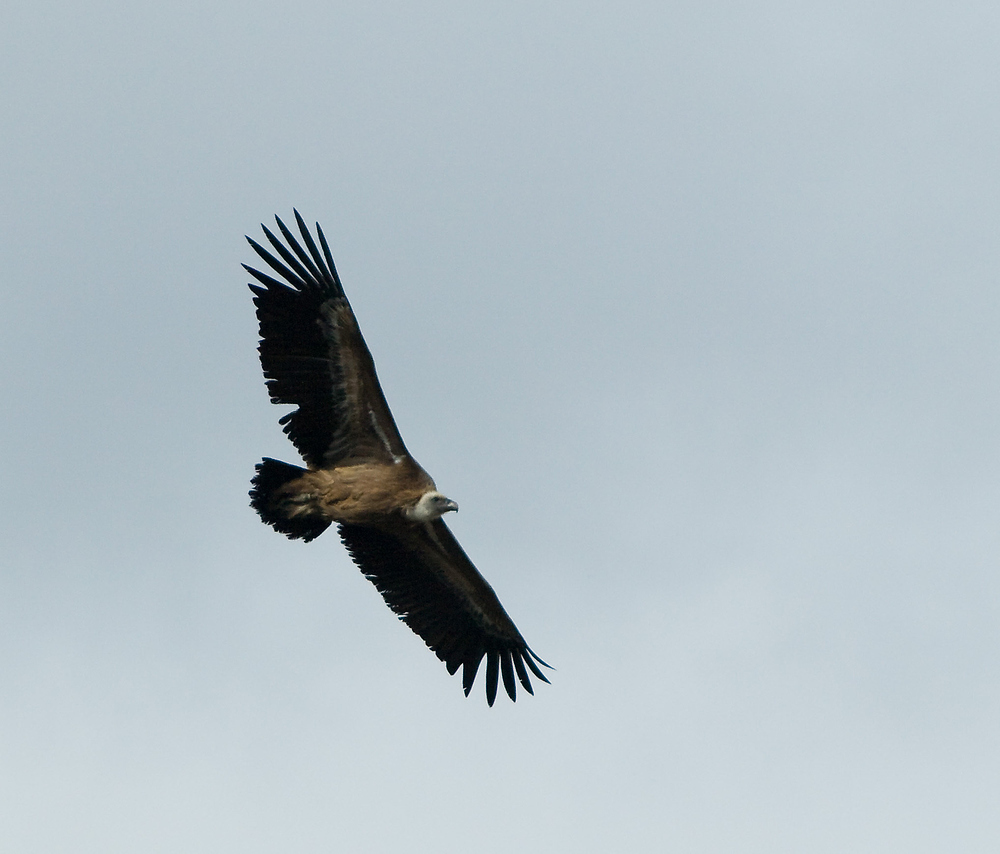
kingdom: Animalia
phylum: Chordata
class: Aves
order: Accipitriformes
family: Accipitridae
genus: Gyps
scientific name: Gyps fulvus
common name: Griffon vulture
